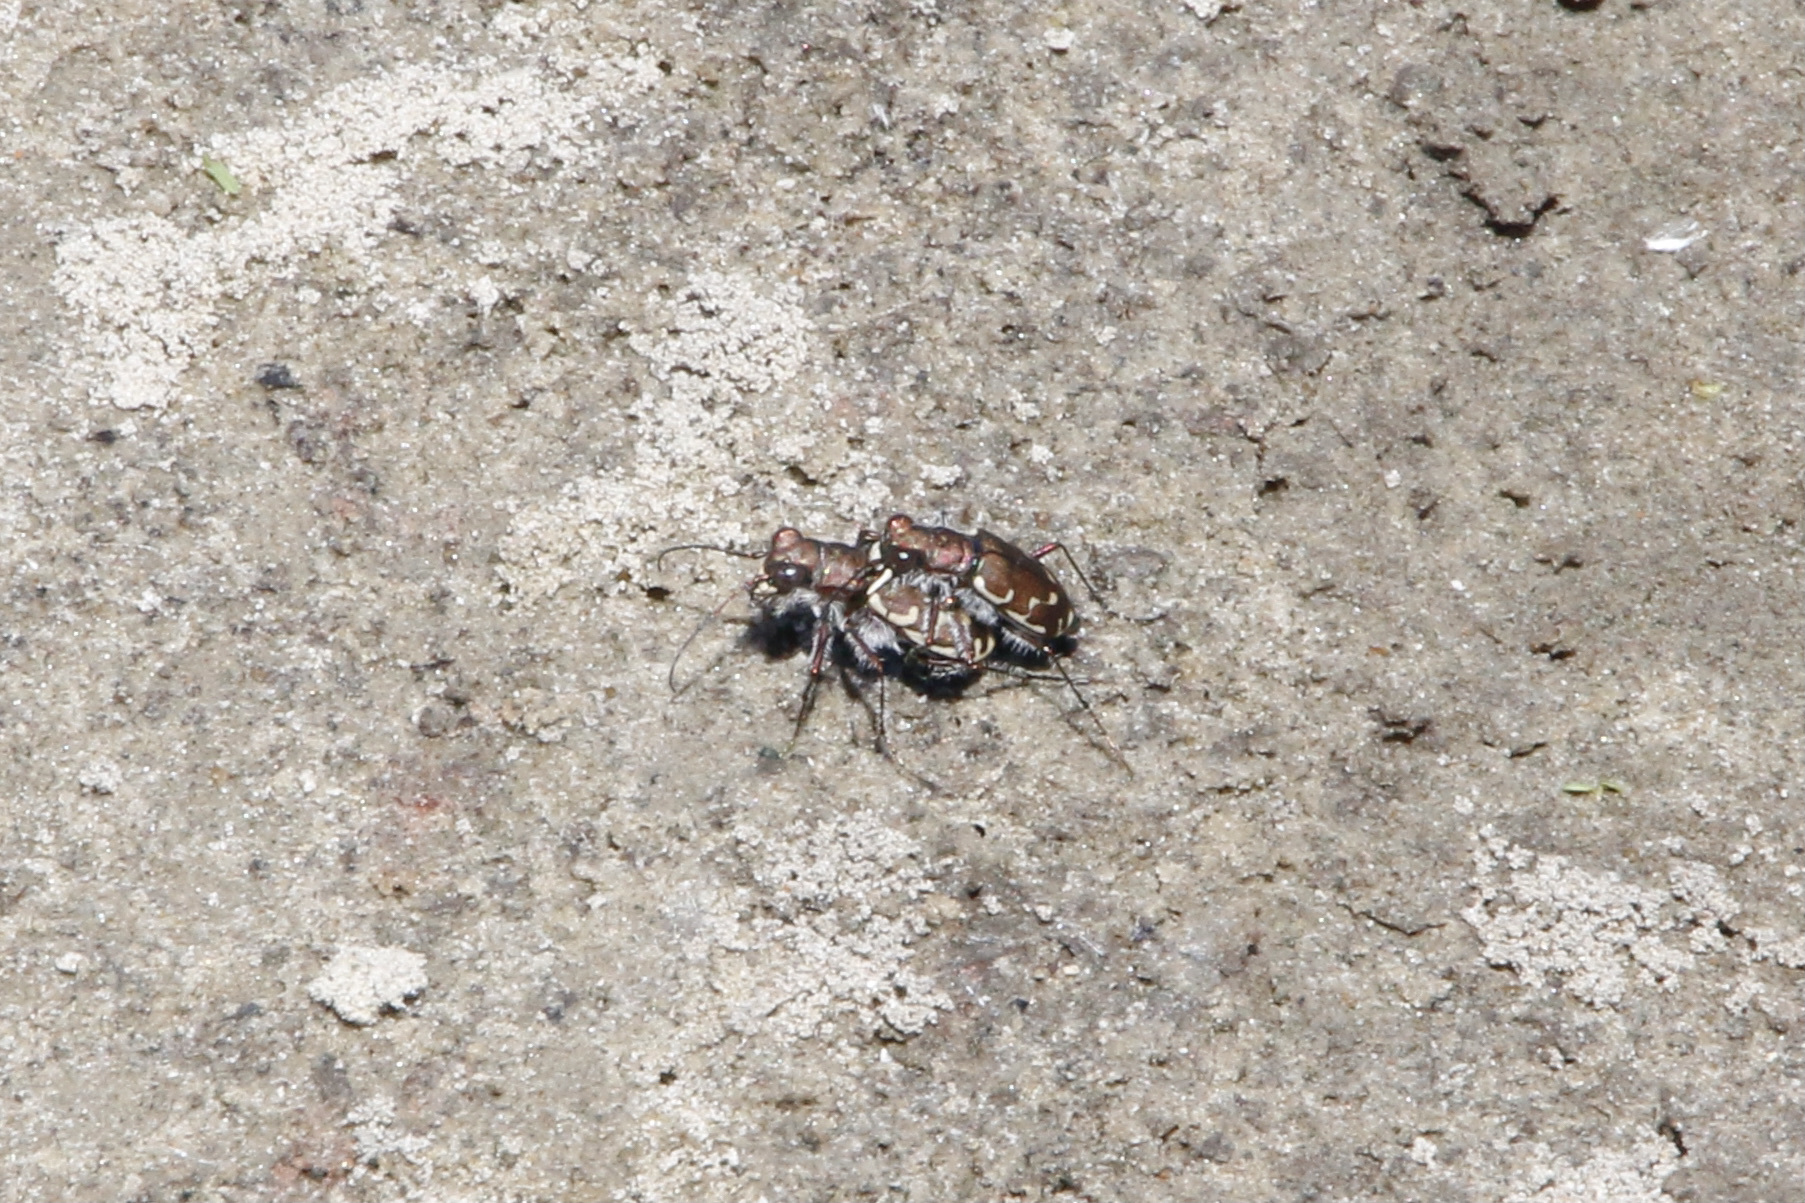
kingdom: Animalia
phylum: Arthropoda
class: Insecta
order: Coleoptera
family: Carabidae
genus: Cicindela
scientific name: Cicindela repanda
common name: Bronzed tiger beetle
